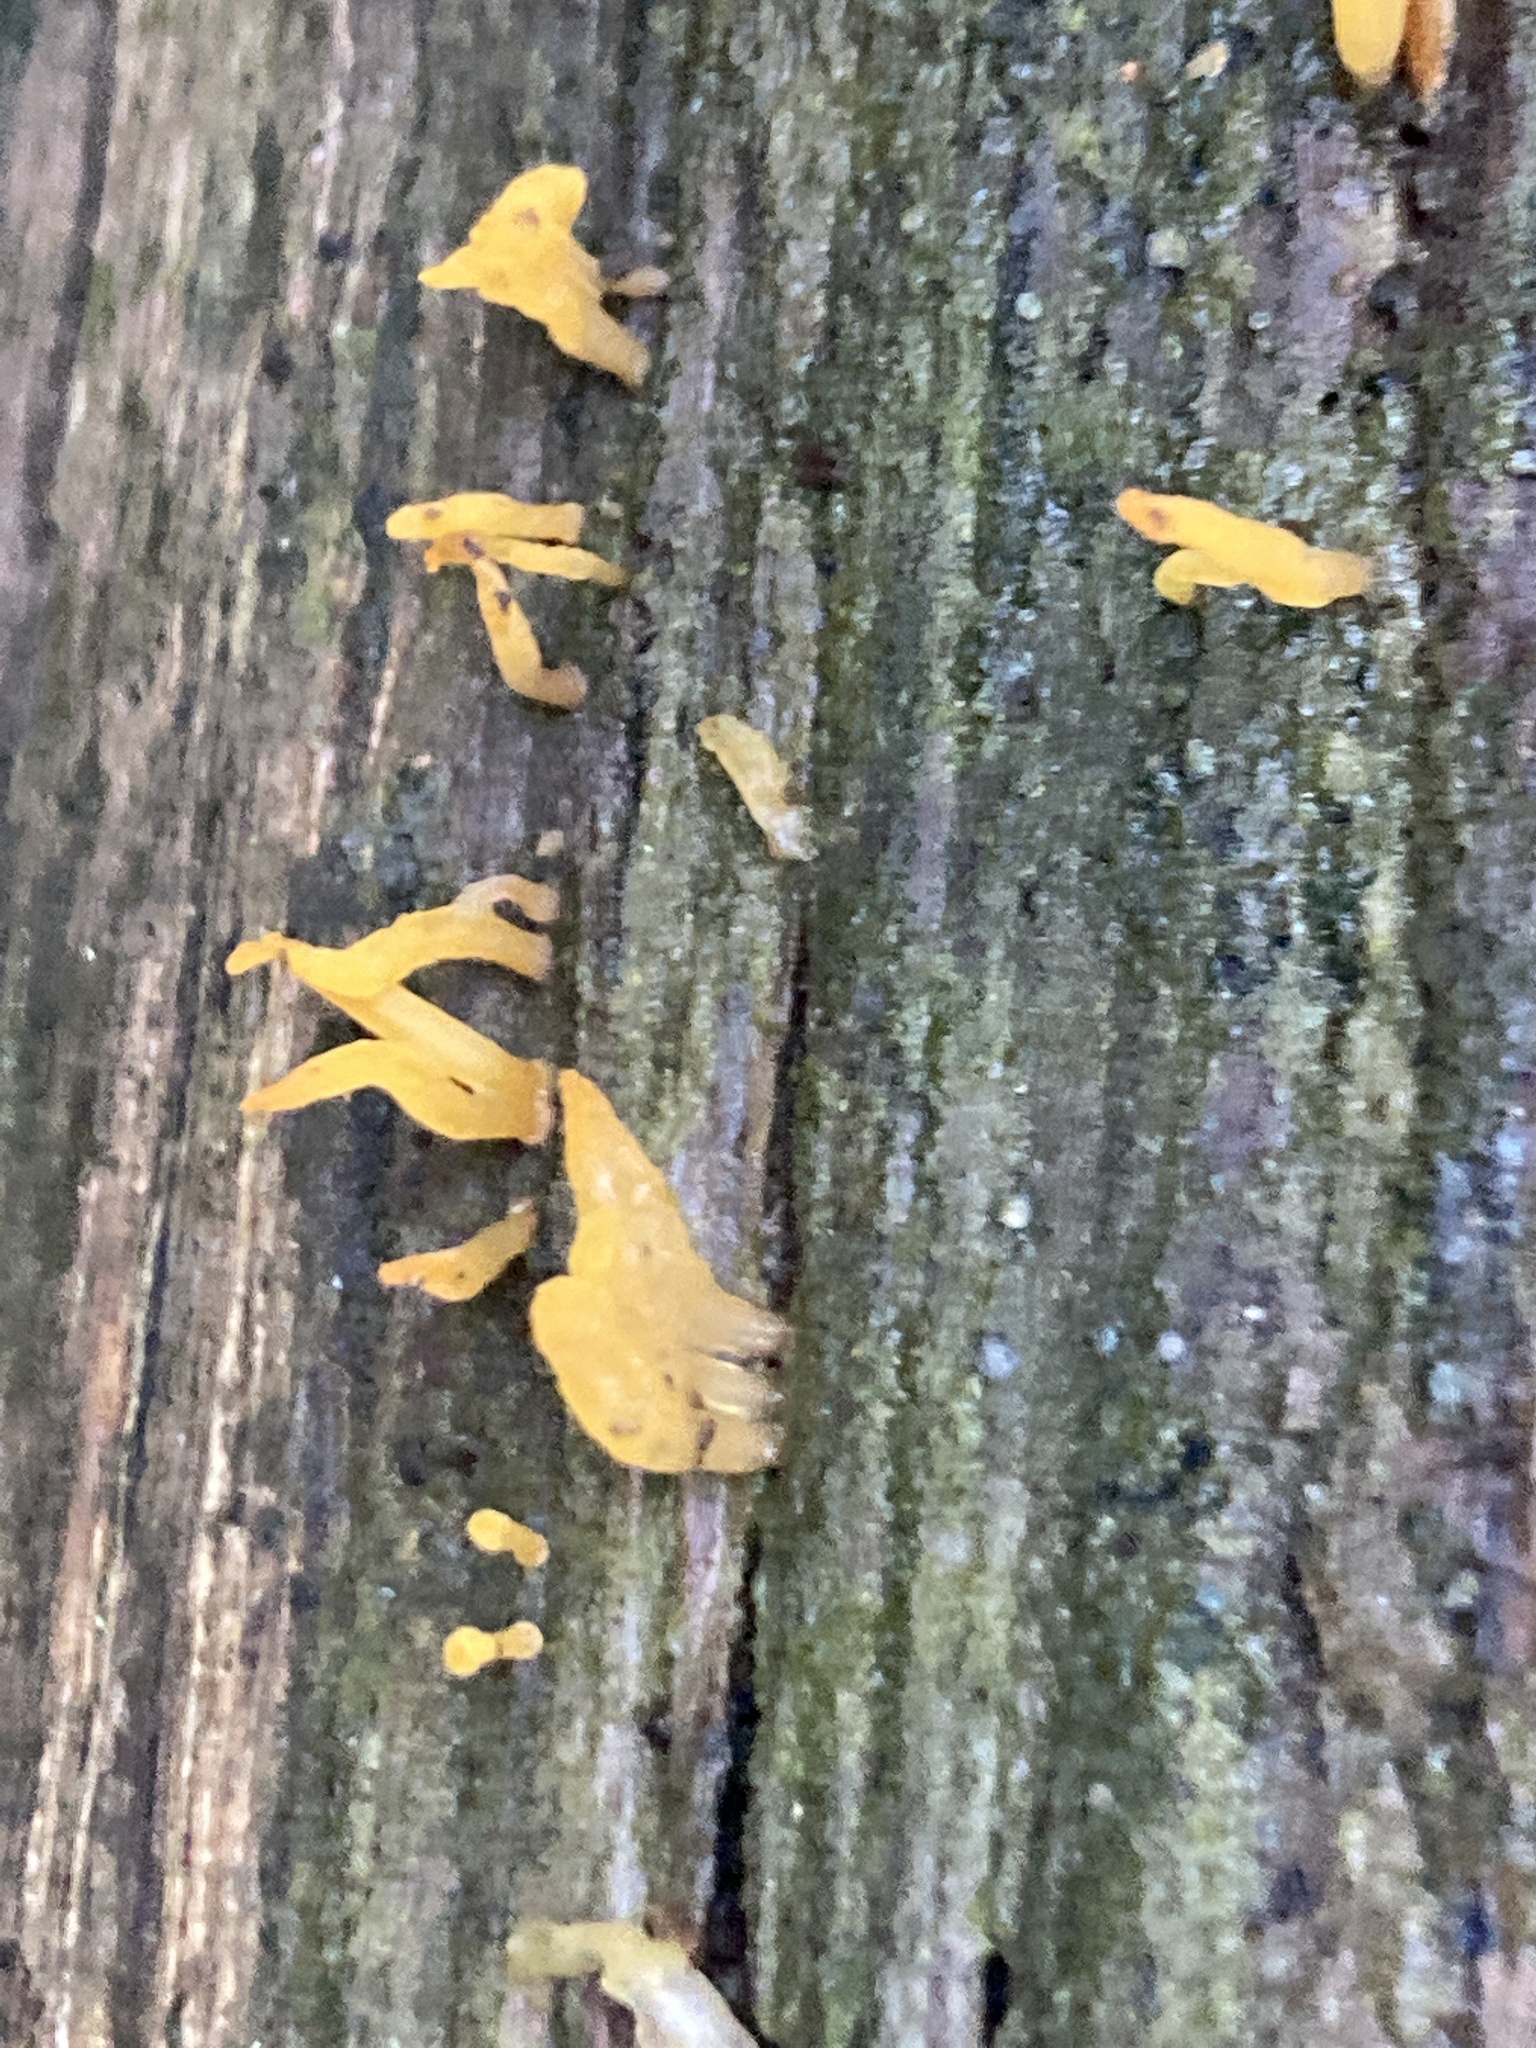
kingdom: Fungi
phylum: Basidiomycota
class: Dacrymycetes
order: Dacrymycetales
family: Dacrymycetaceae
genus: Calocera
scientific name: Calocera cornea
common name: Small stagshorn
